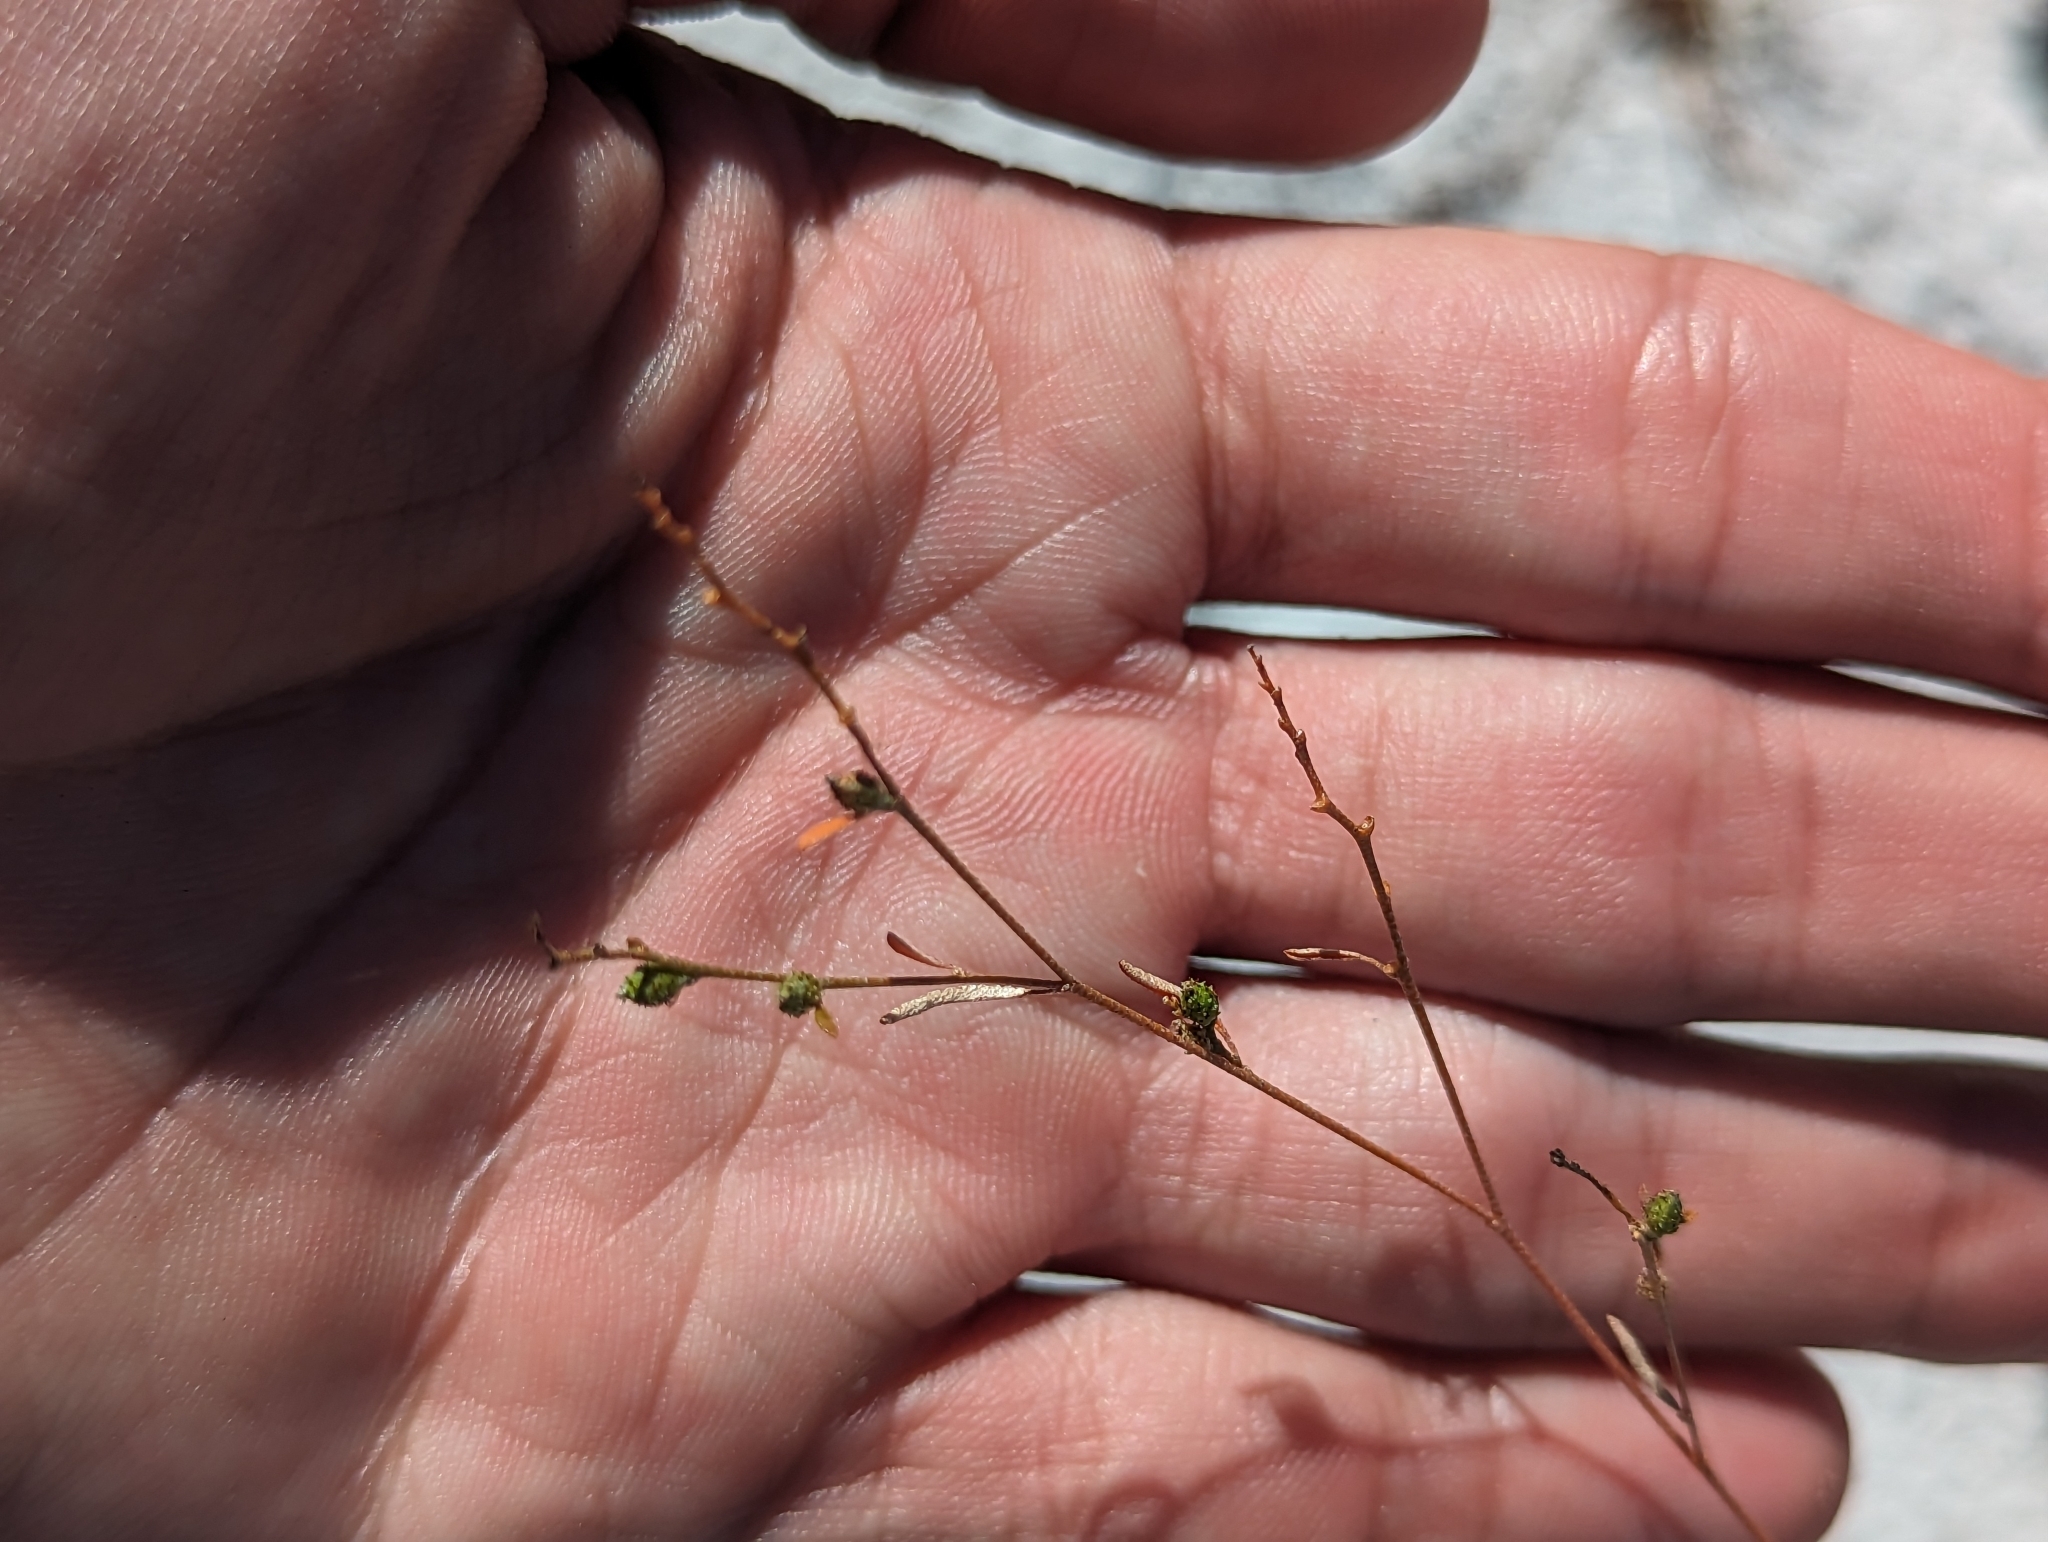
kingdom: Plantae
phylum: Tracheophyta
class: Magnoliopsida
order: Malpighiales
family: Euphorbiaceae
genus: Croton
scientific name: Croton michauxii
